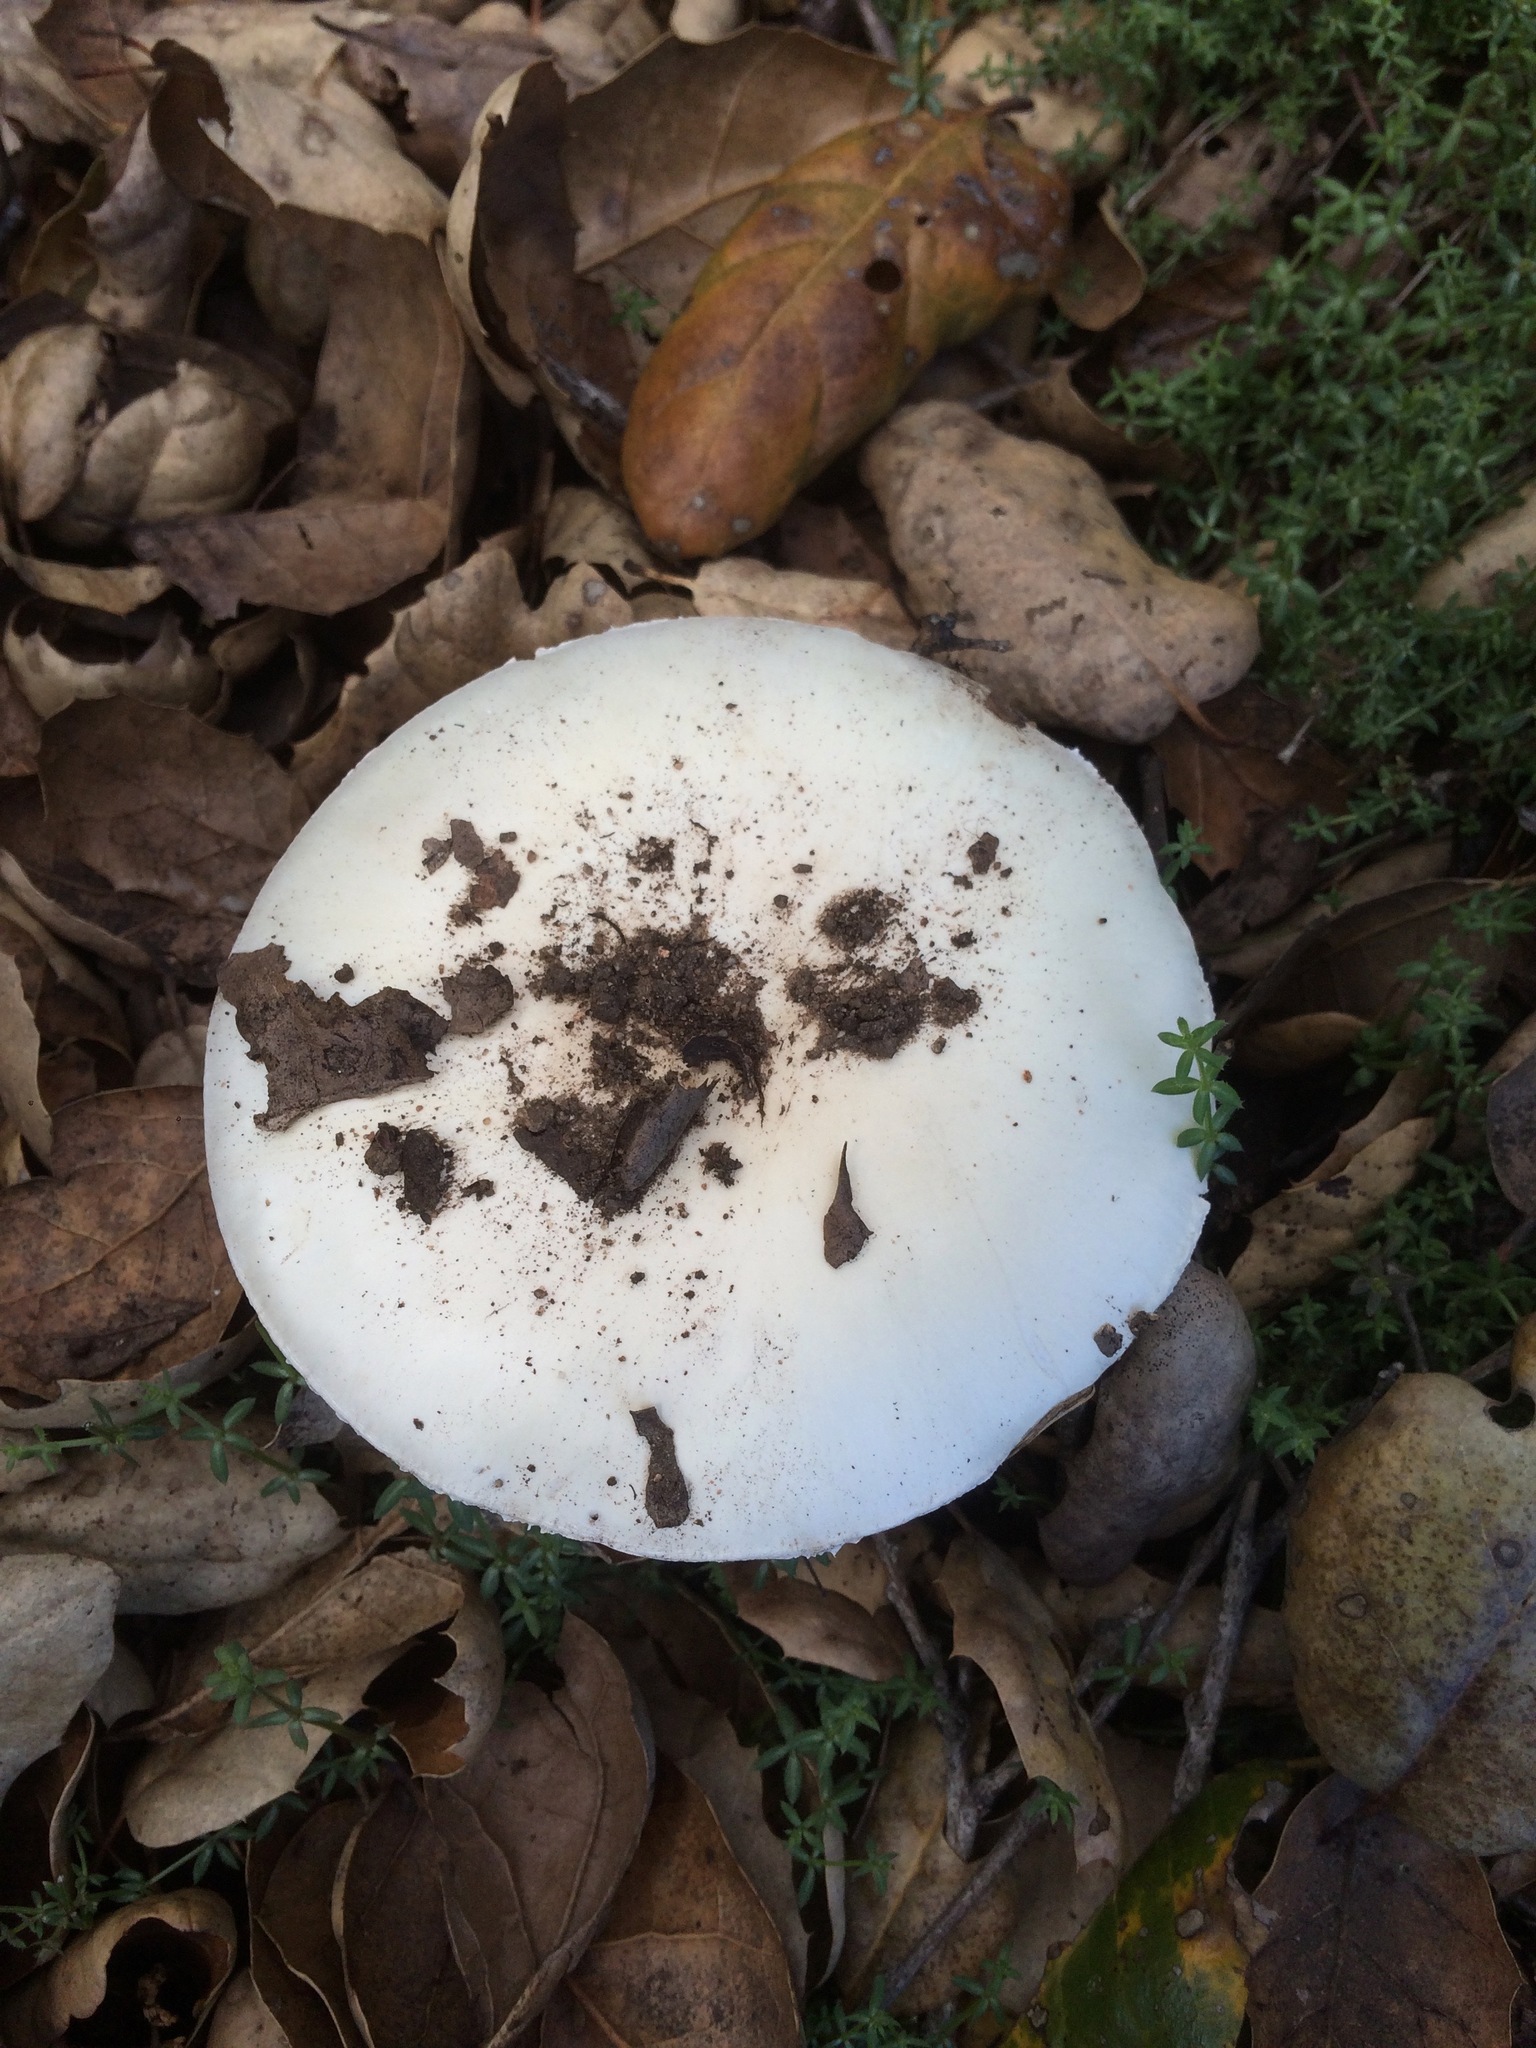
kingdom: Fungi
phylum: Basidiomycota
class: Agaricomycetes
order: Agaricales
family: Amanitaceae
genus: Amanita
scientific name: Amanita ocreata
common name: Western destroying angel
